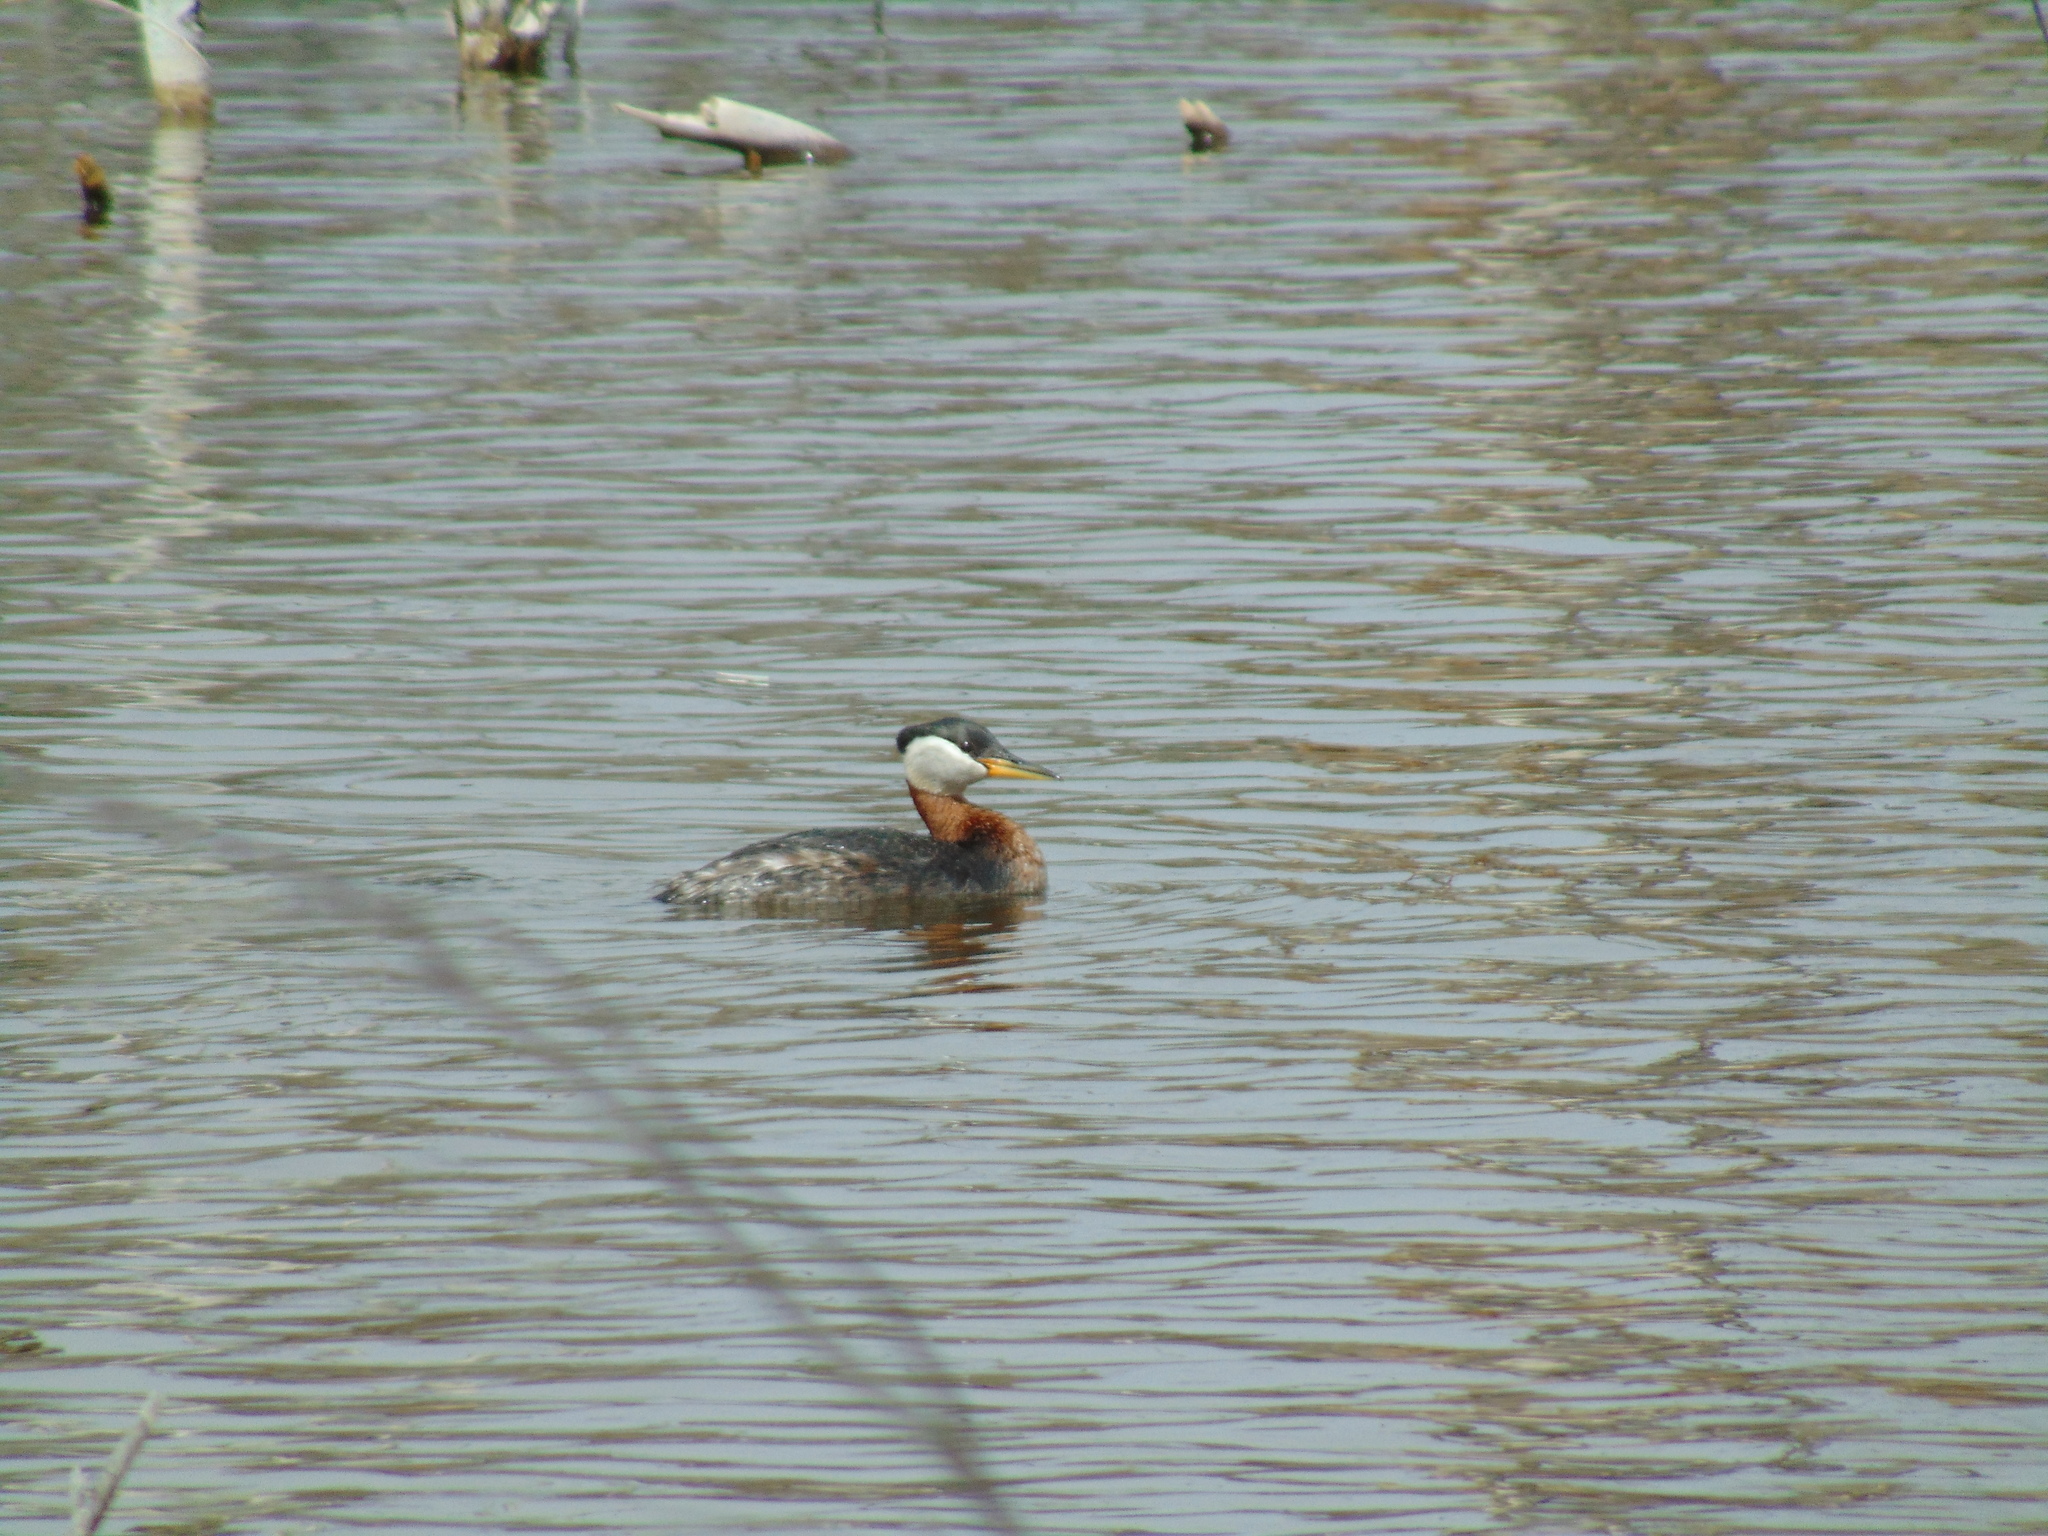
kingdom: Animalia
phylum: Chordata
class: Aves
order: Podicipediformes
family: Podicipedidae
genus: Podiceps
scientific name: Podiceps grisegena
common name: Red-necked grebe
